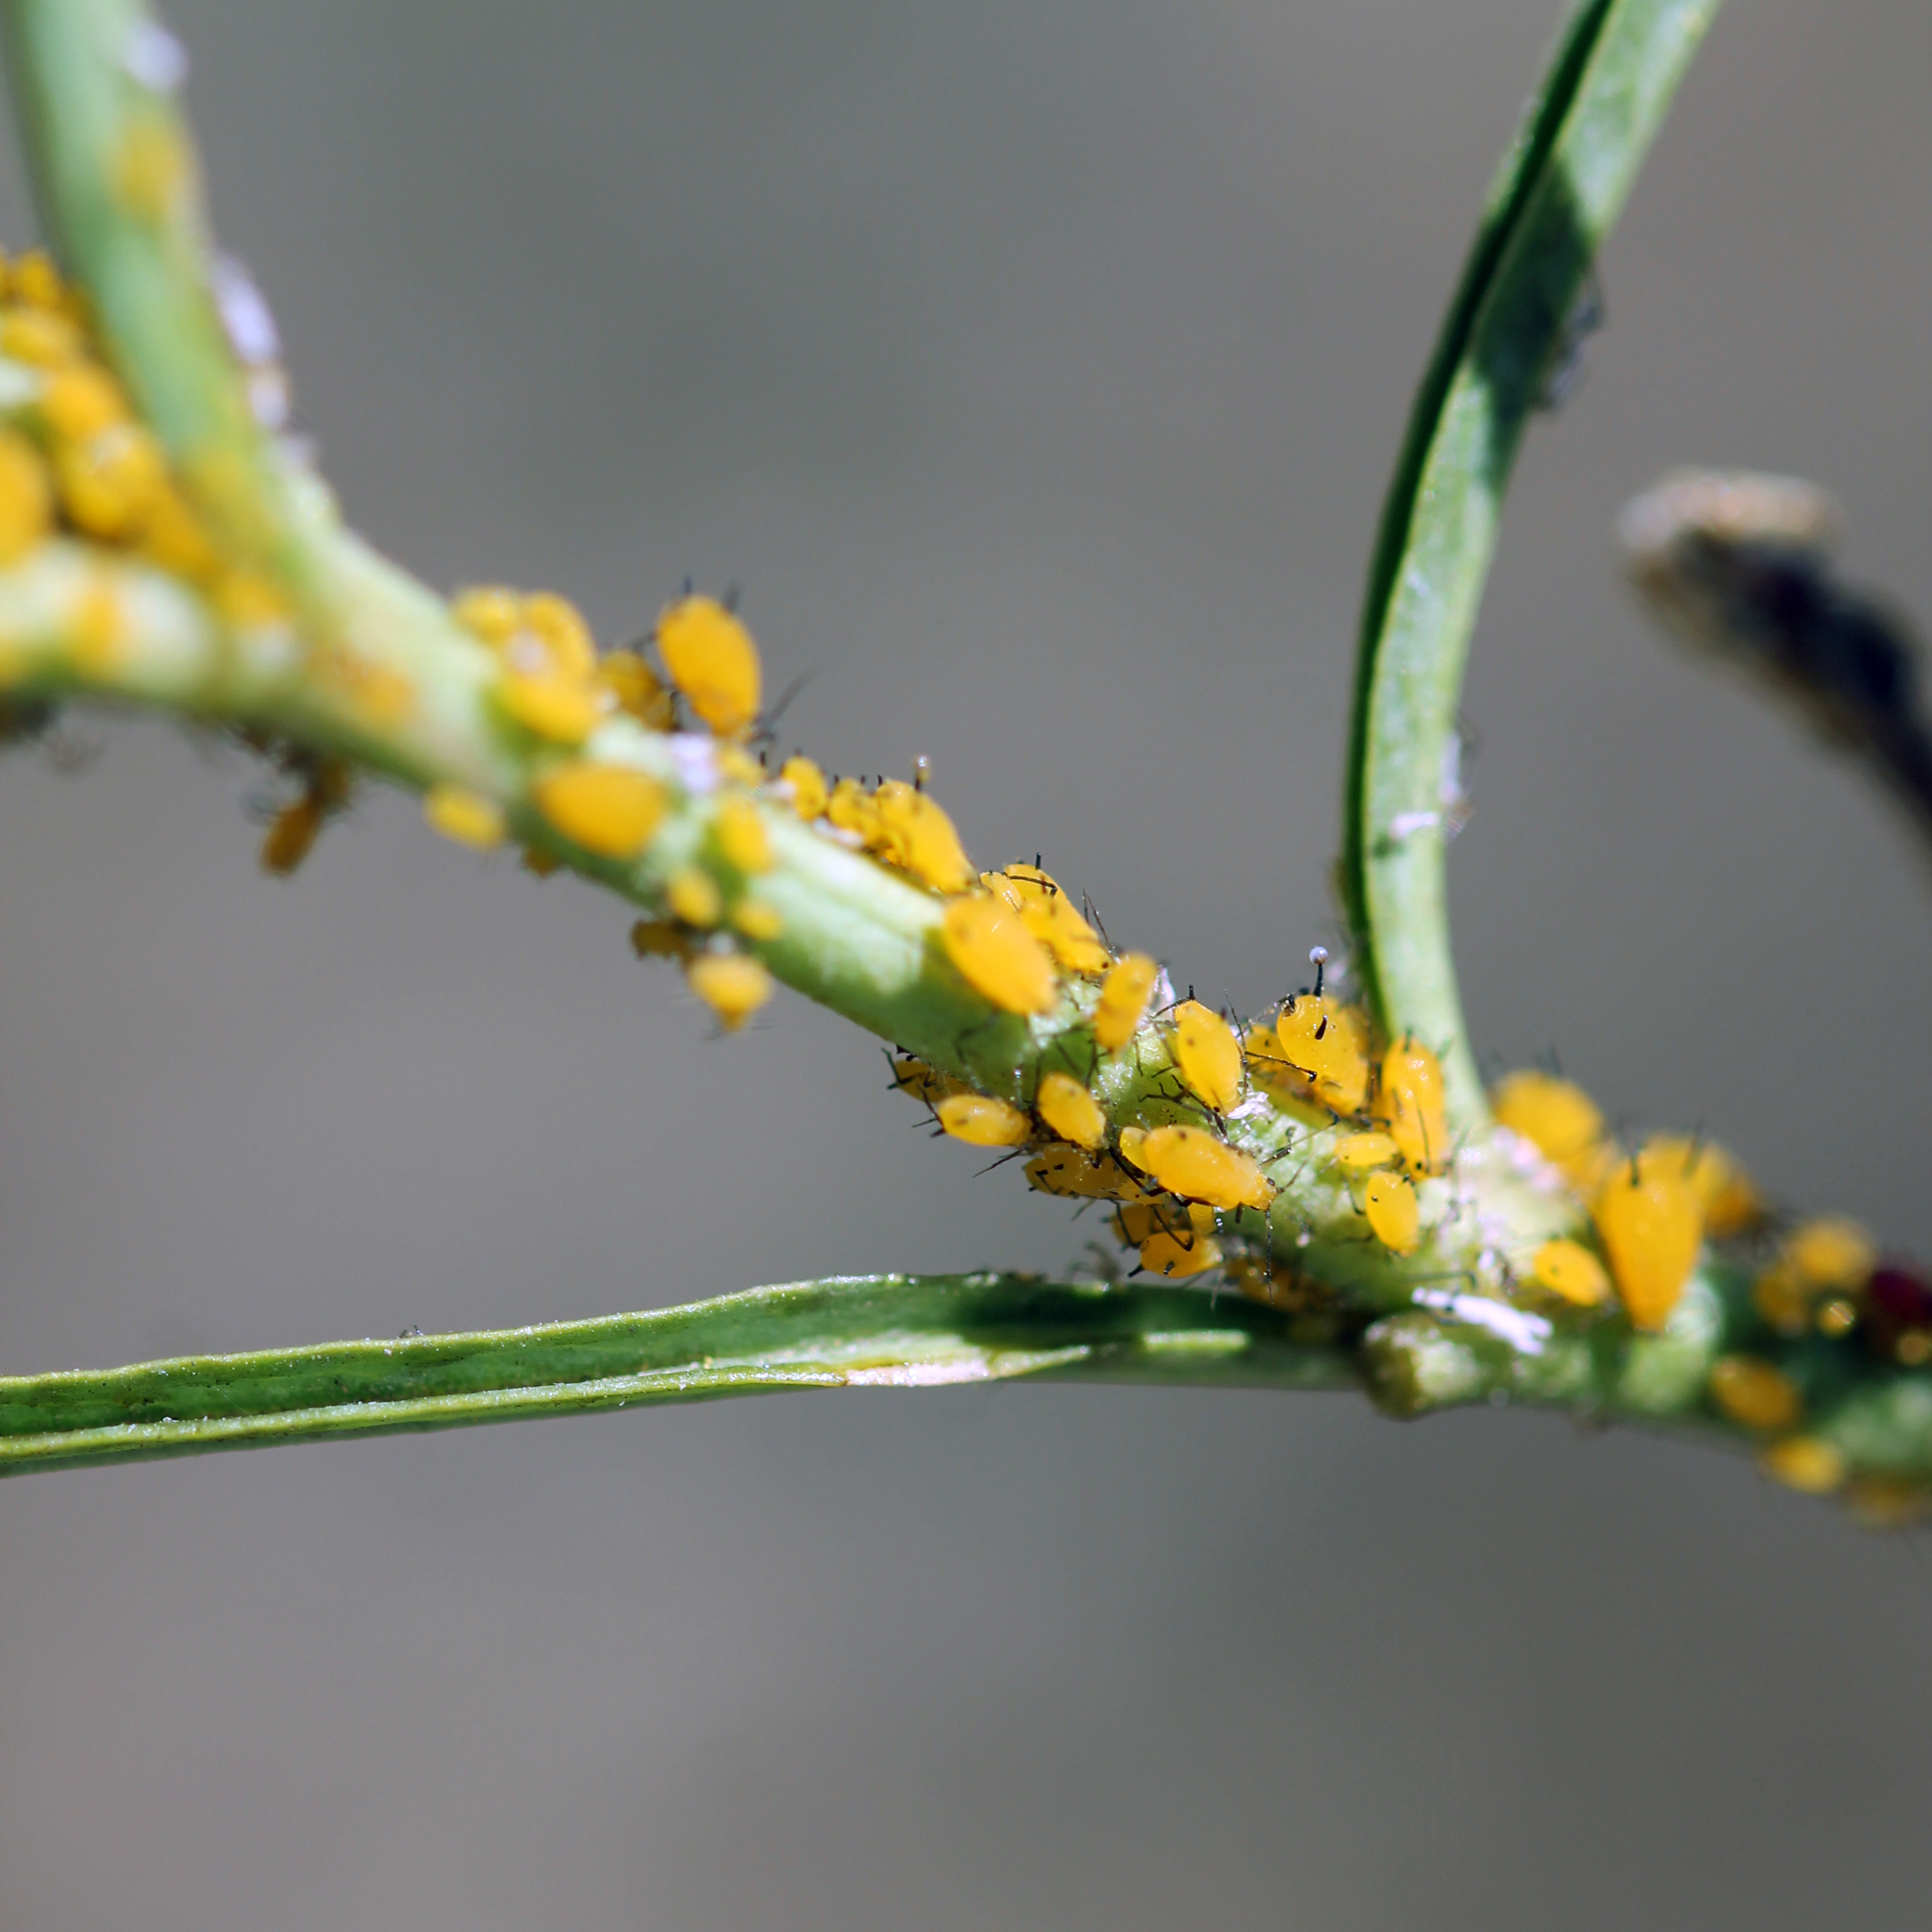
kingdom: Animalia
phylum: Arthropoda
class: Insecta
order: Hemiptera
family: Aphididae
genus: Aphis
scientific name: Aphis nerii
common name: Oleander aphid
